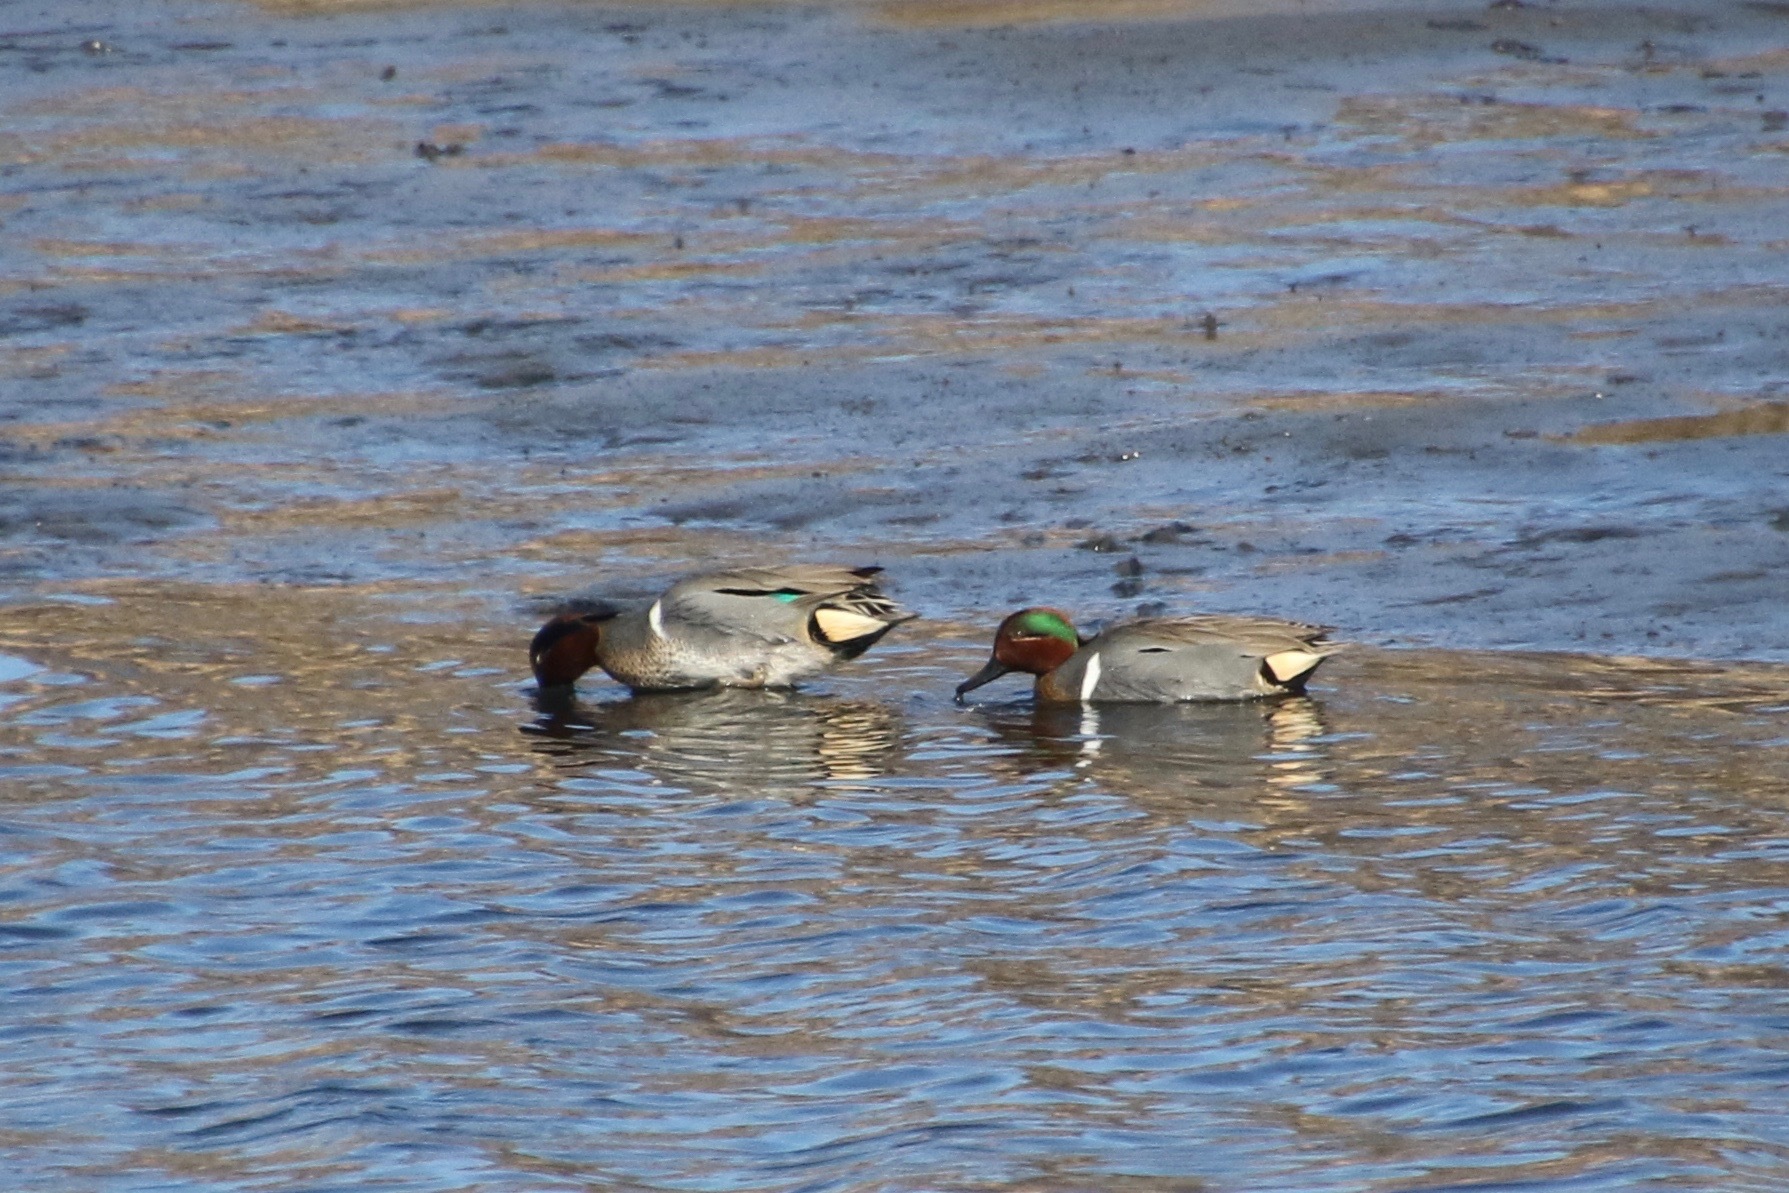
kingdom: Animalia
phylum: Chordata
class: Aves
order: Anseriformes
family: Anatidae
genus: Anas
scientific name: Anas crecca
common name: Eurasian teal
